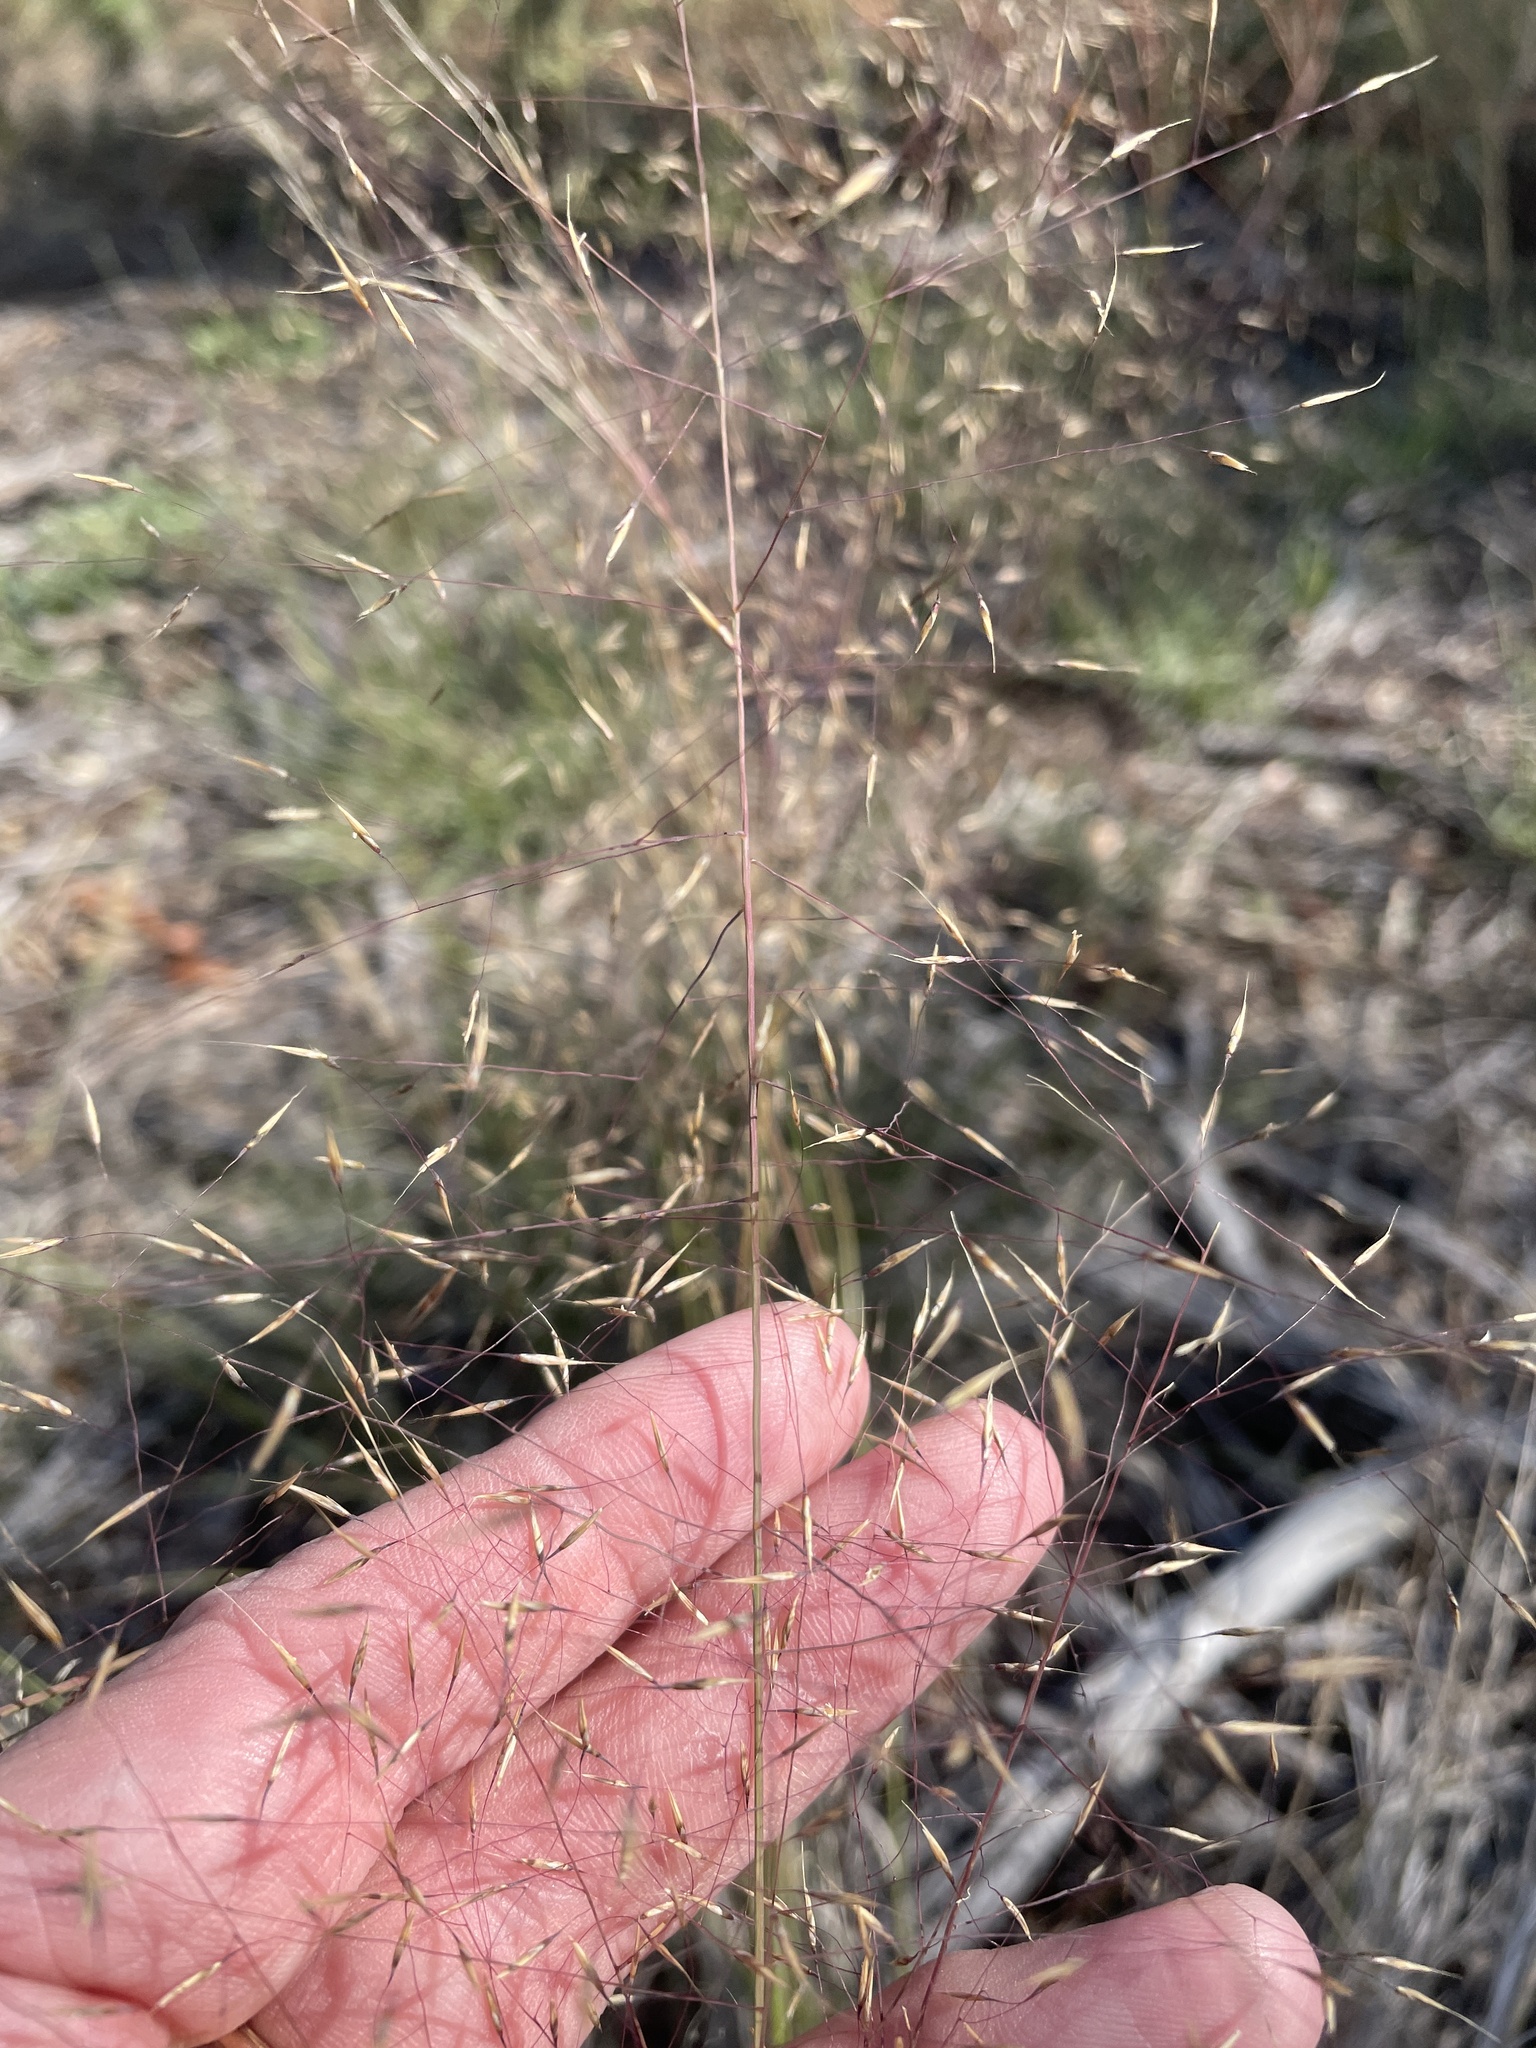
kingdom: Plantae
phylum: Tracheophyta
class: Liliopsida
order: Poales
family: Poaceae
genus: Muhlenbergia
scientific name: Muhlenbergia reverchonii
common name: Seep muhly
